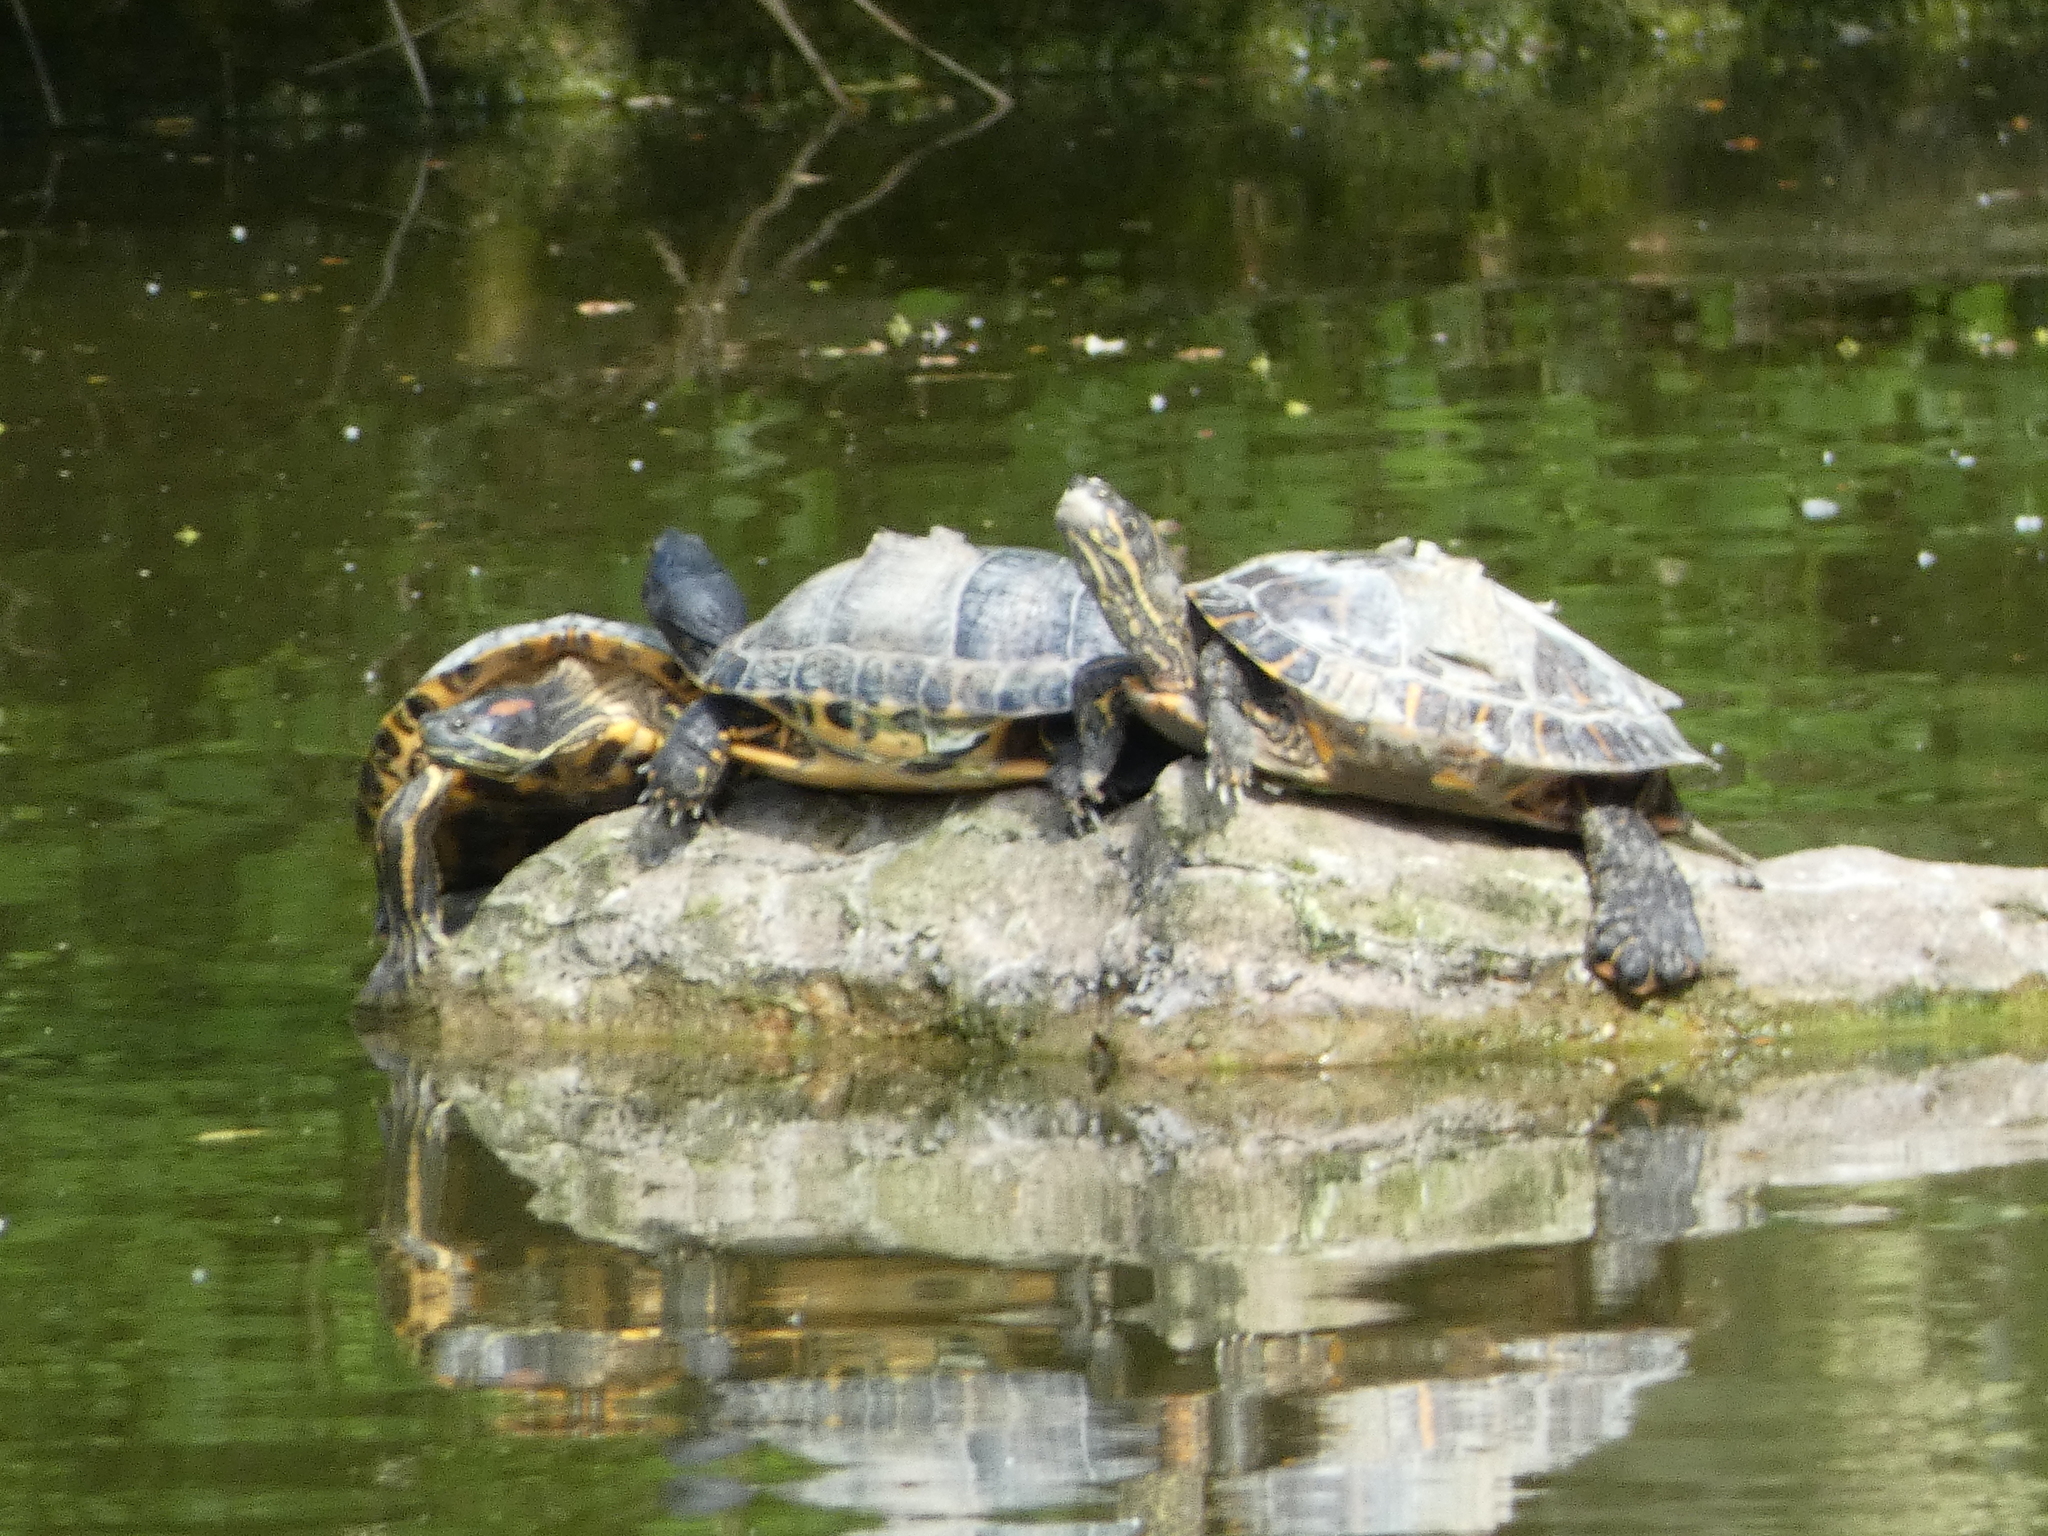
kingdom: Animalia
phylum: Chordata
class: Testudines
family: Emydidae
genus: Trachemys
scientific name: Trachemys scripta
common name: Slider
